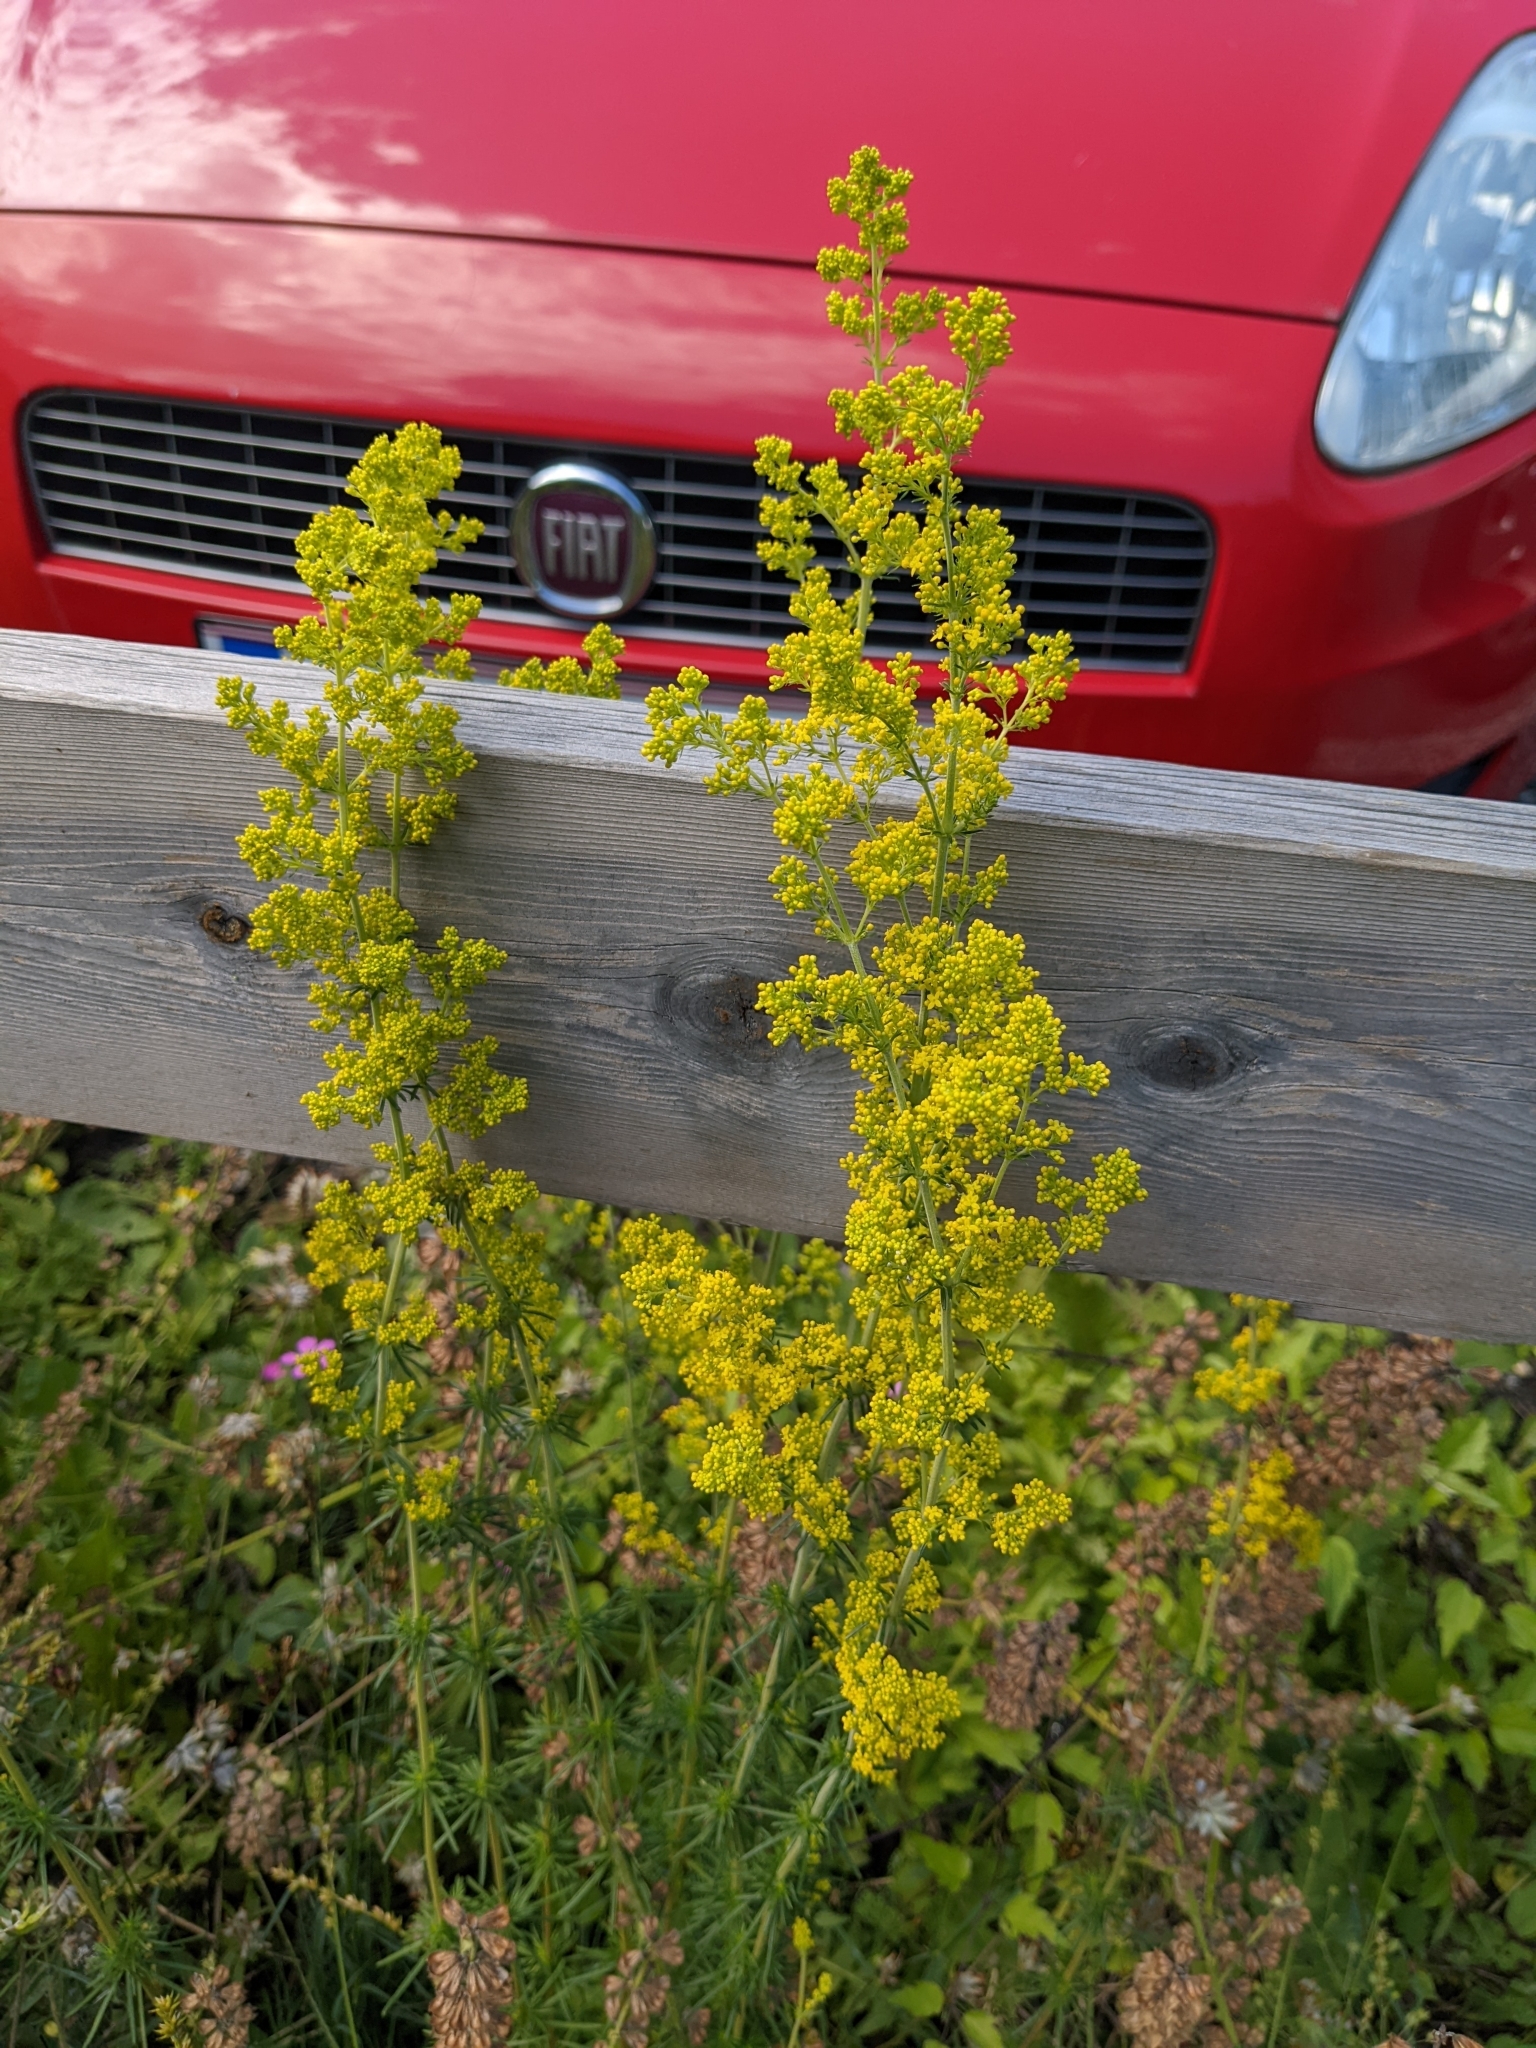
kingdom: Plantae
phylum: Tracheophyta
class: Magnoliopsida
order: Gentianales
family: Rubiaceae
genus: Galium
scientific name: Galium verum
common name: Lady's bedstraw
